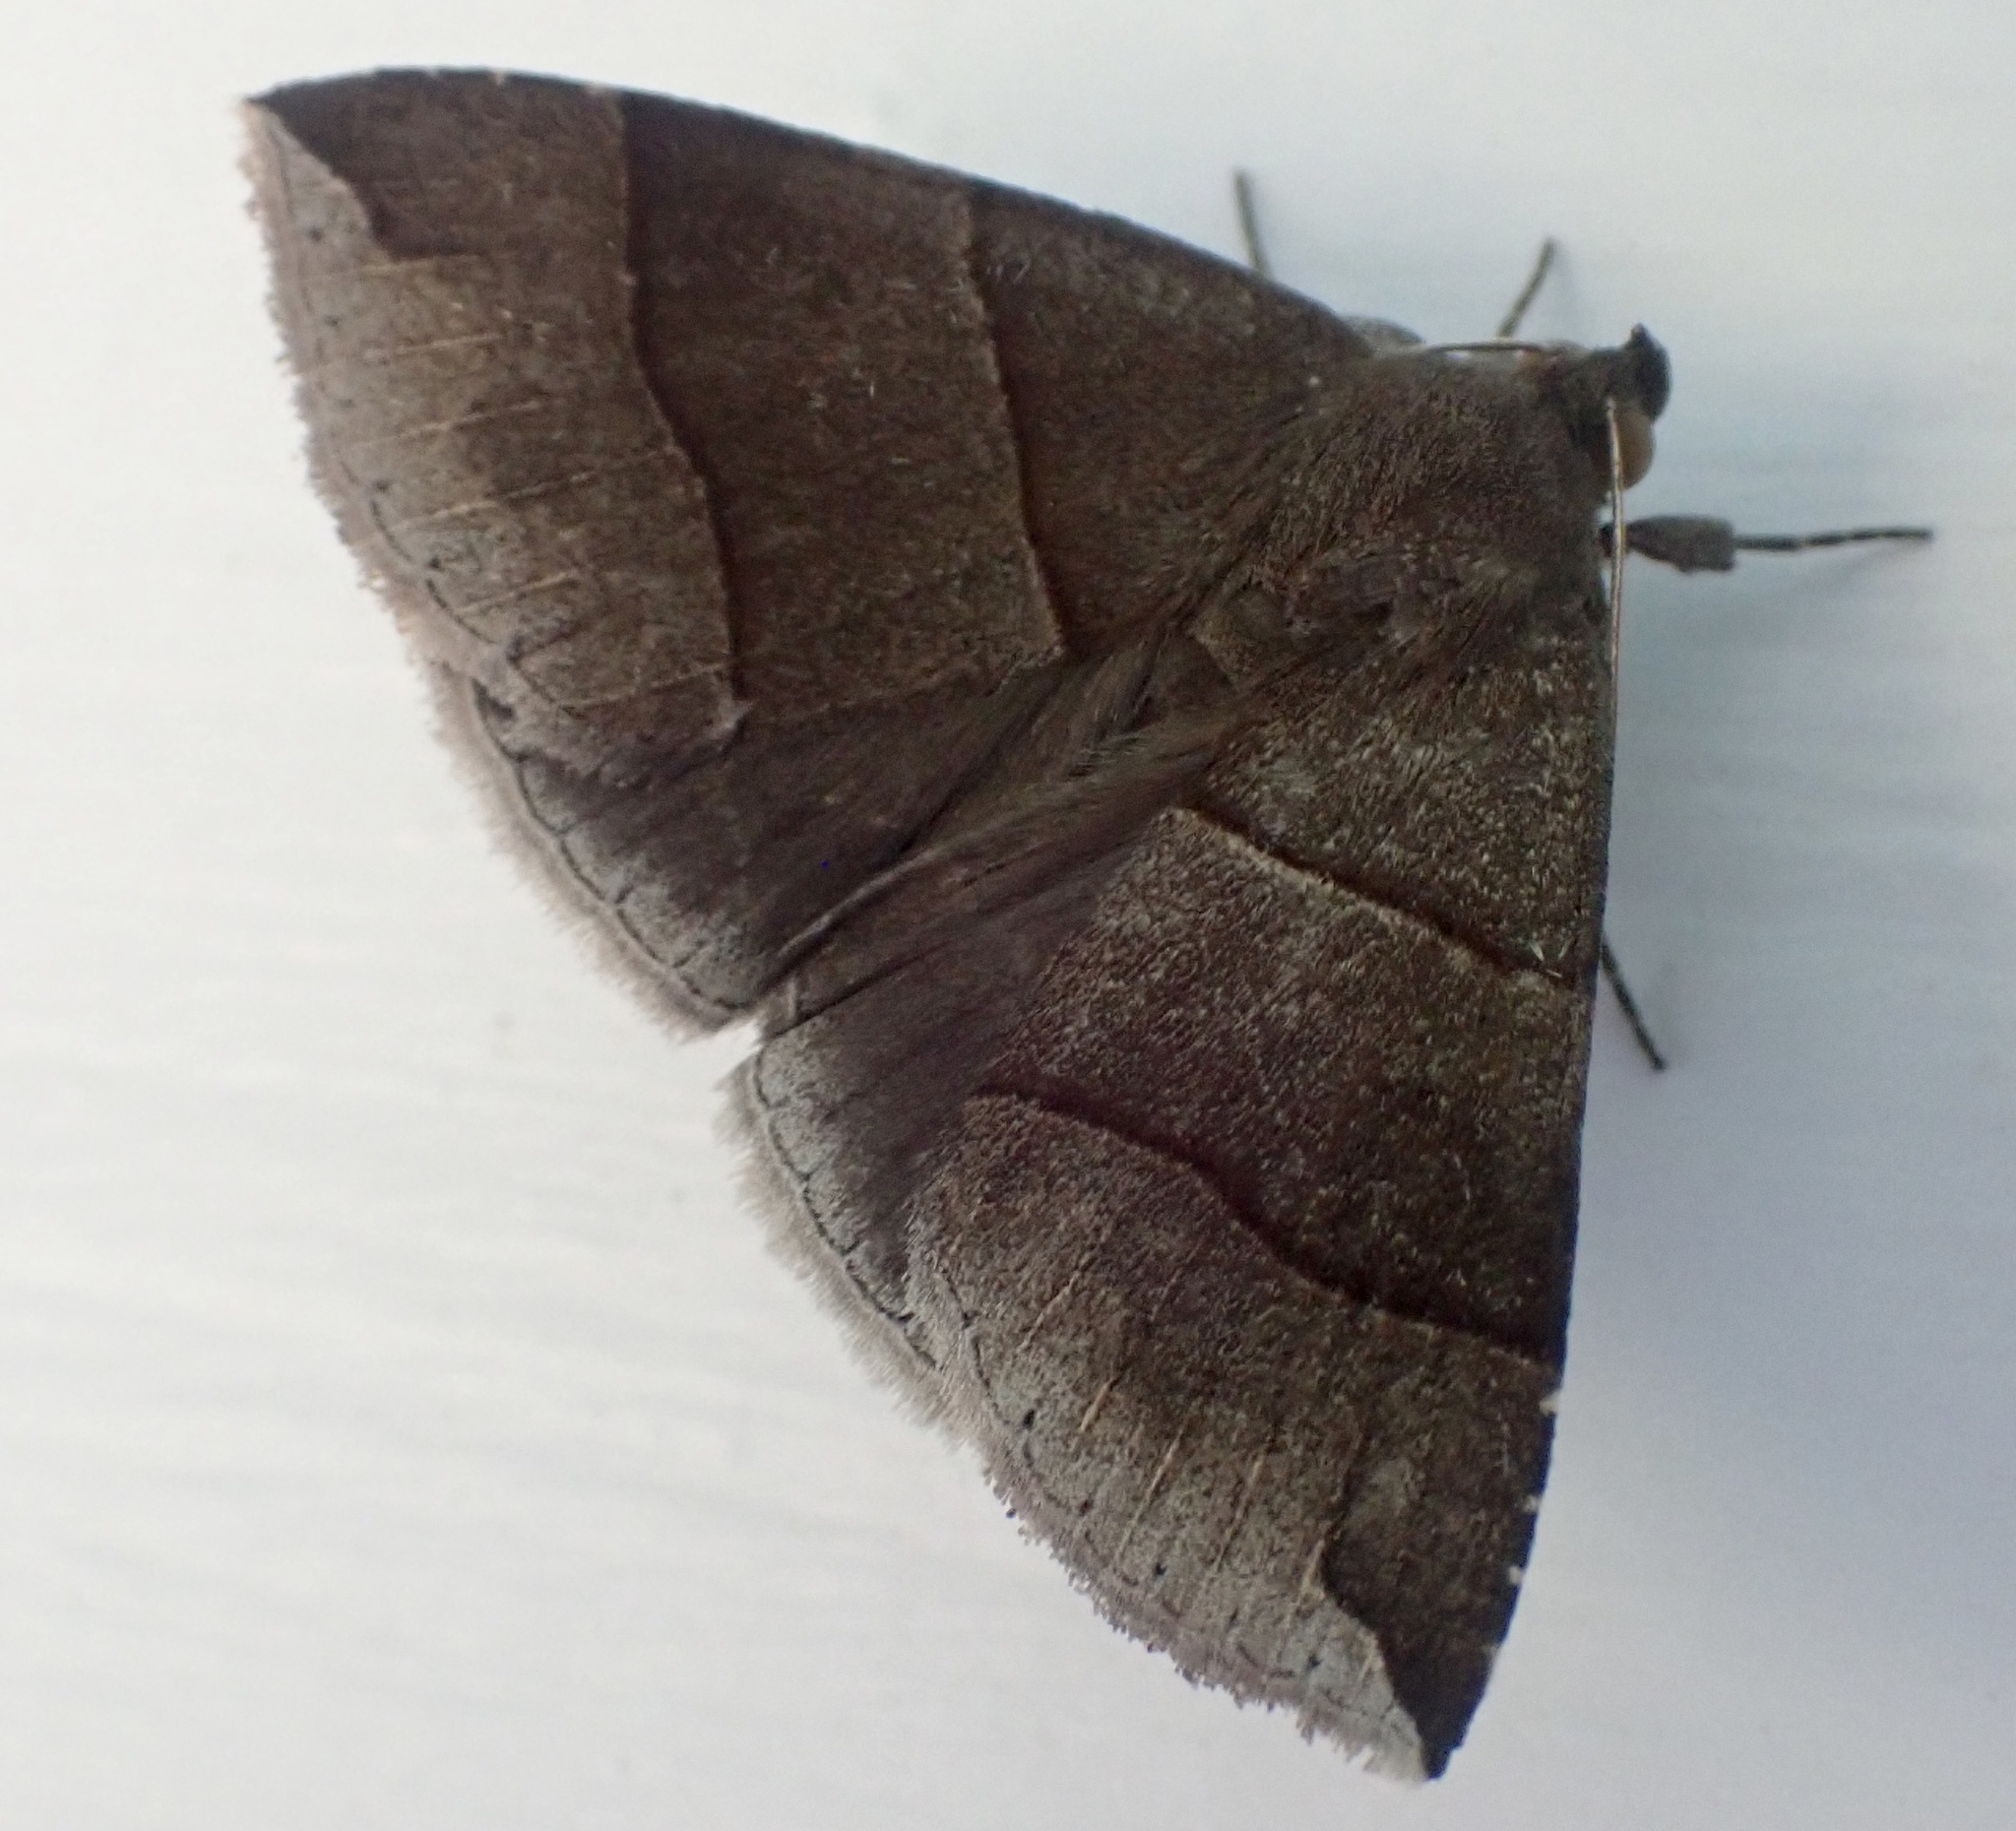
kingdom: Animalia
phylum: Arthropoda
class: Insecta
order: Lepidoptera
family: Erebidae
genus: Parallelia
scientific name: Parallelia bistriaris
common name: Maple looper moth
